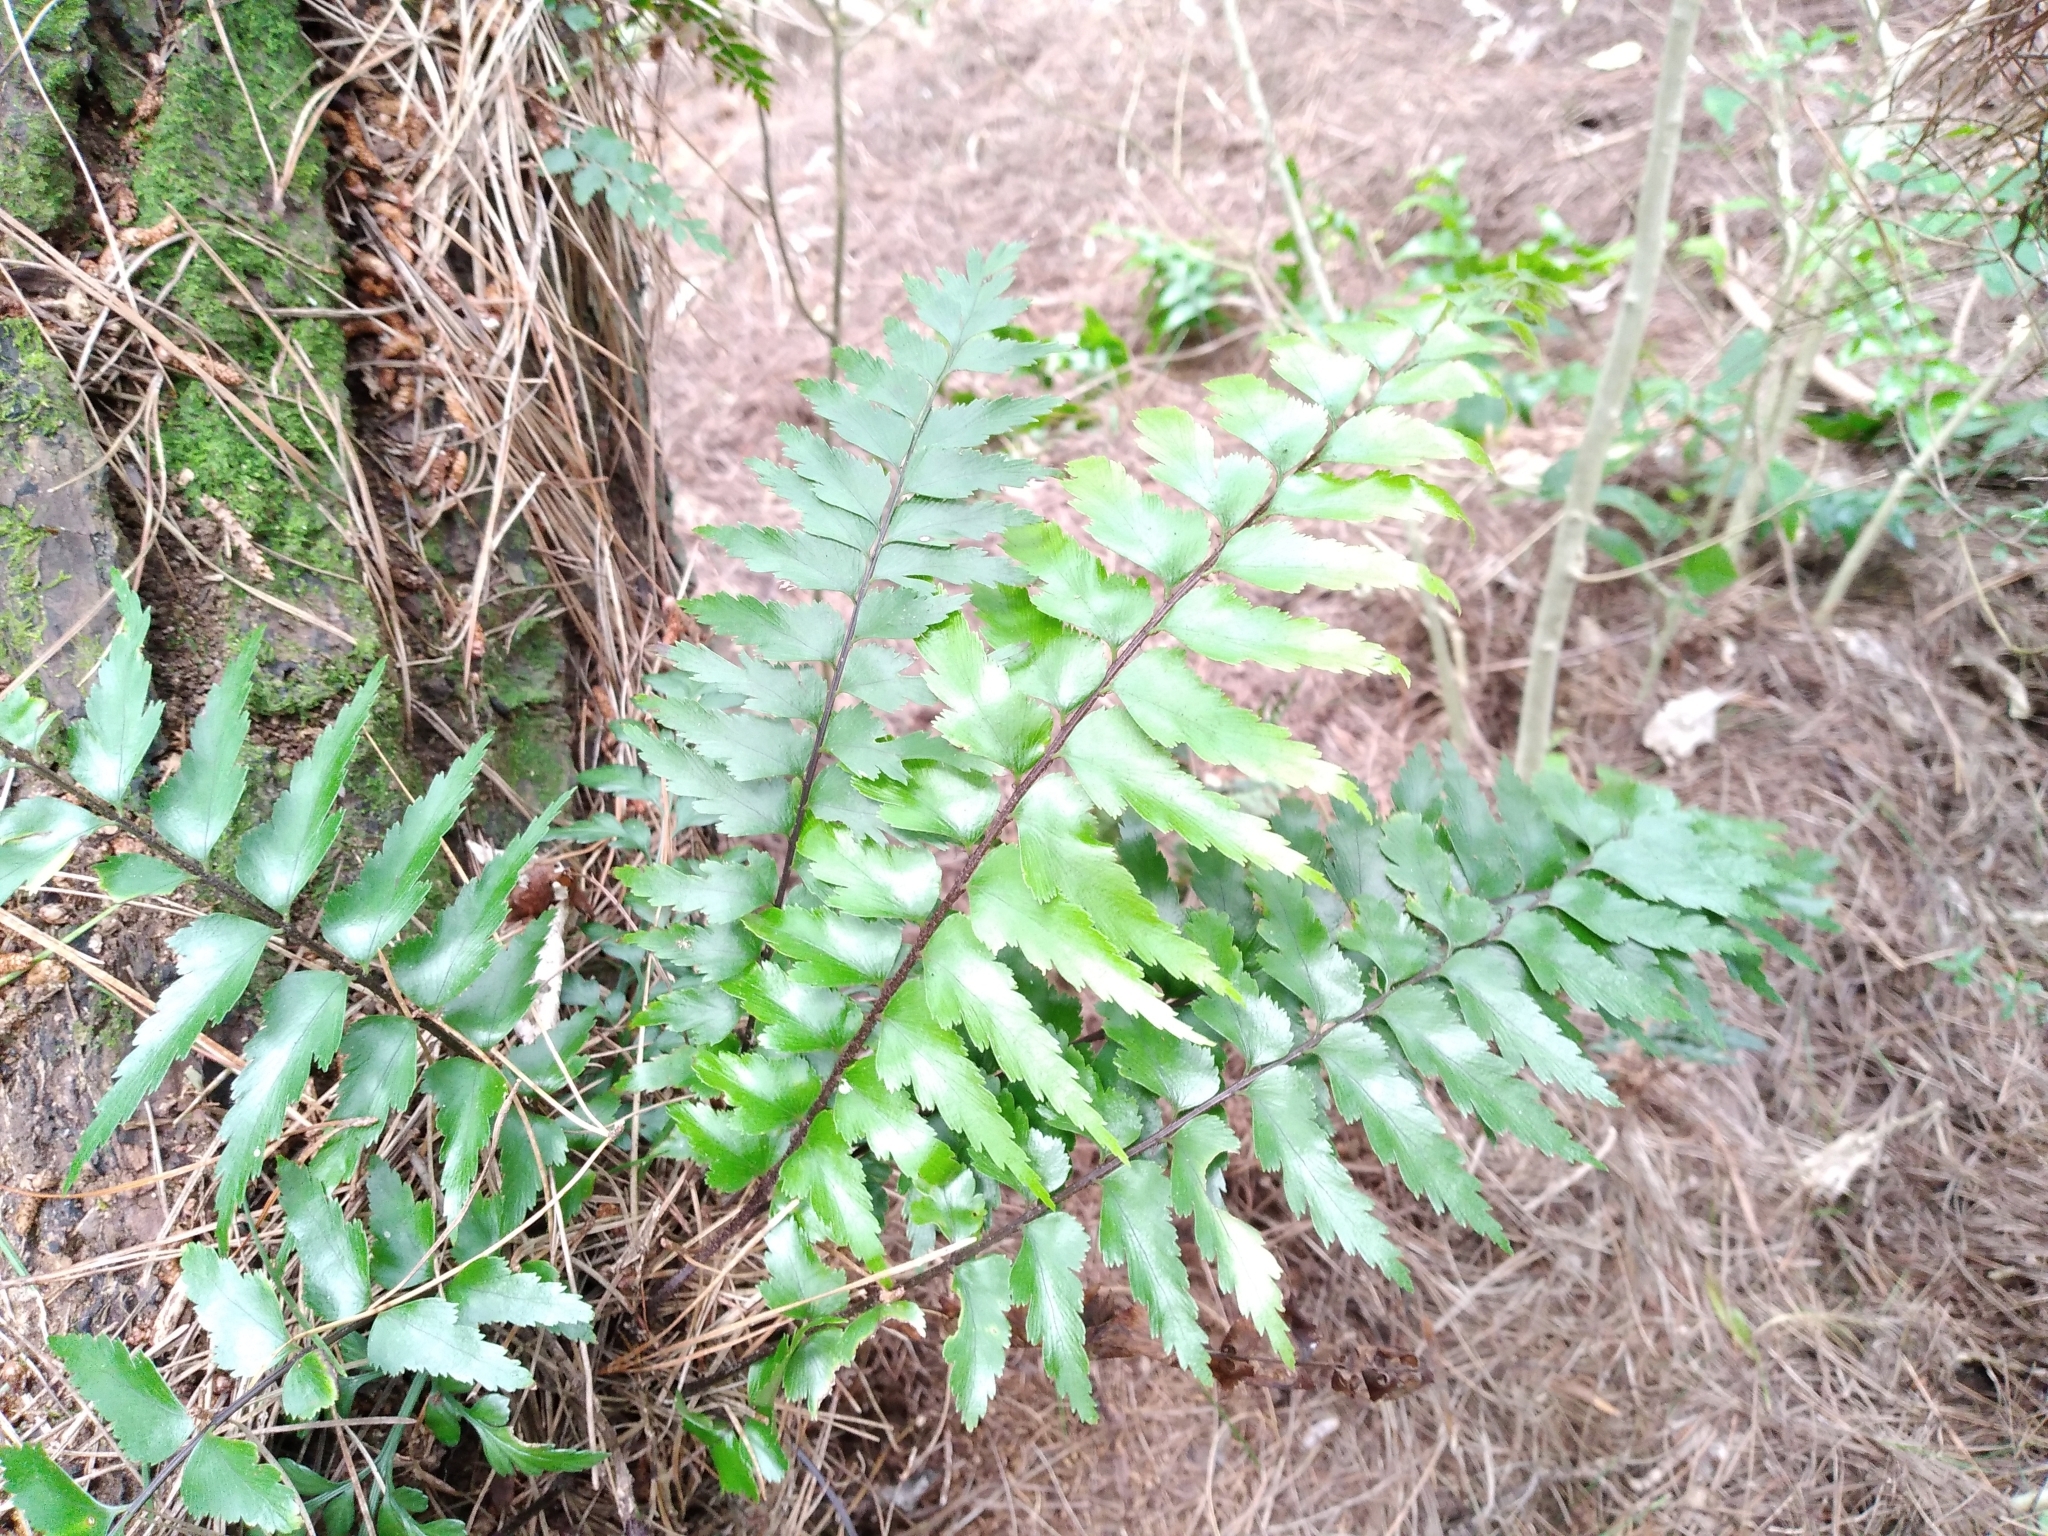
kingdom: Plantae
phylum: Tracheophyta
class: Polypodiopsida
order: Polypodiales
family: Aspleniaceae
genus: Asplenium
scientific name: Asplenium polyodon
